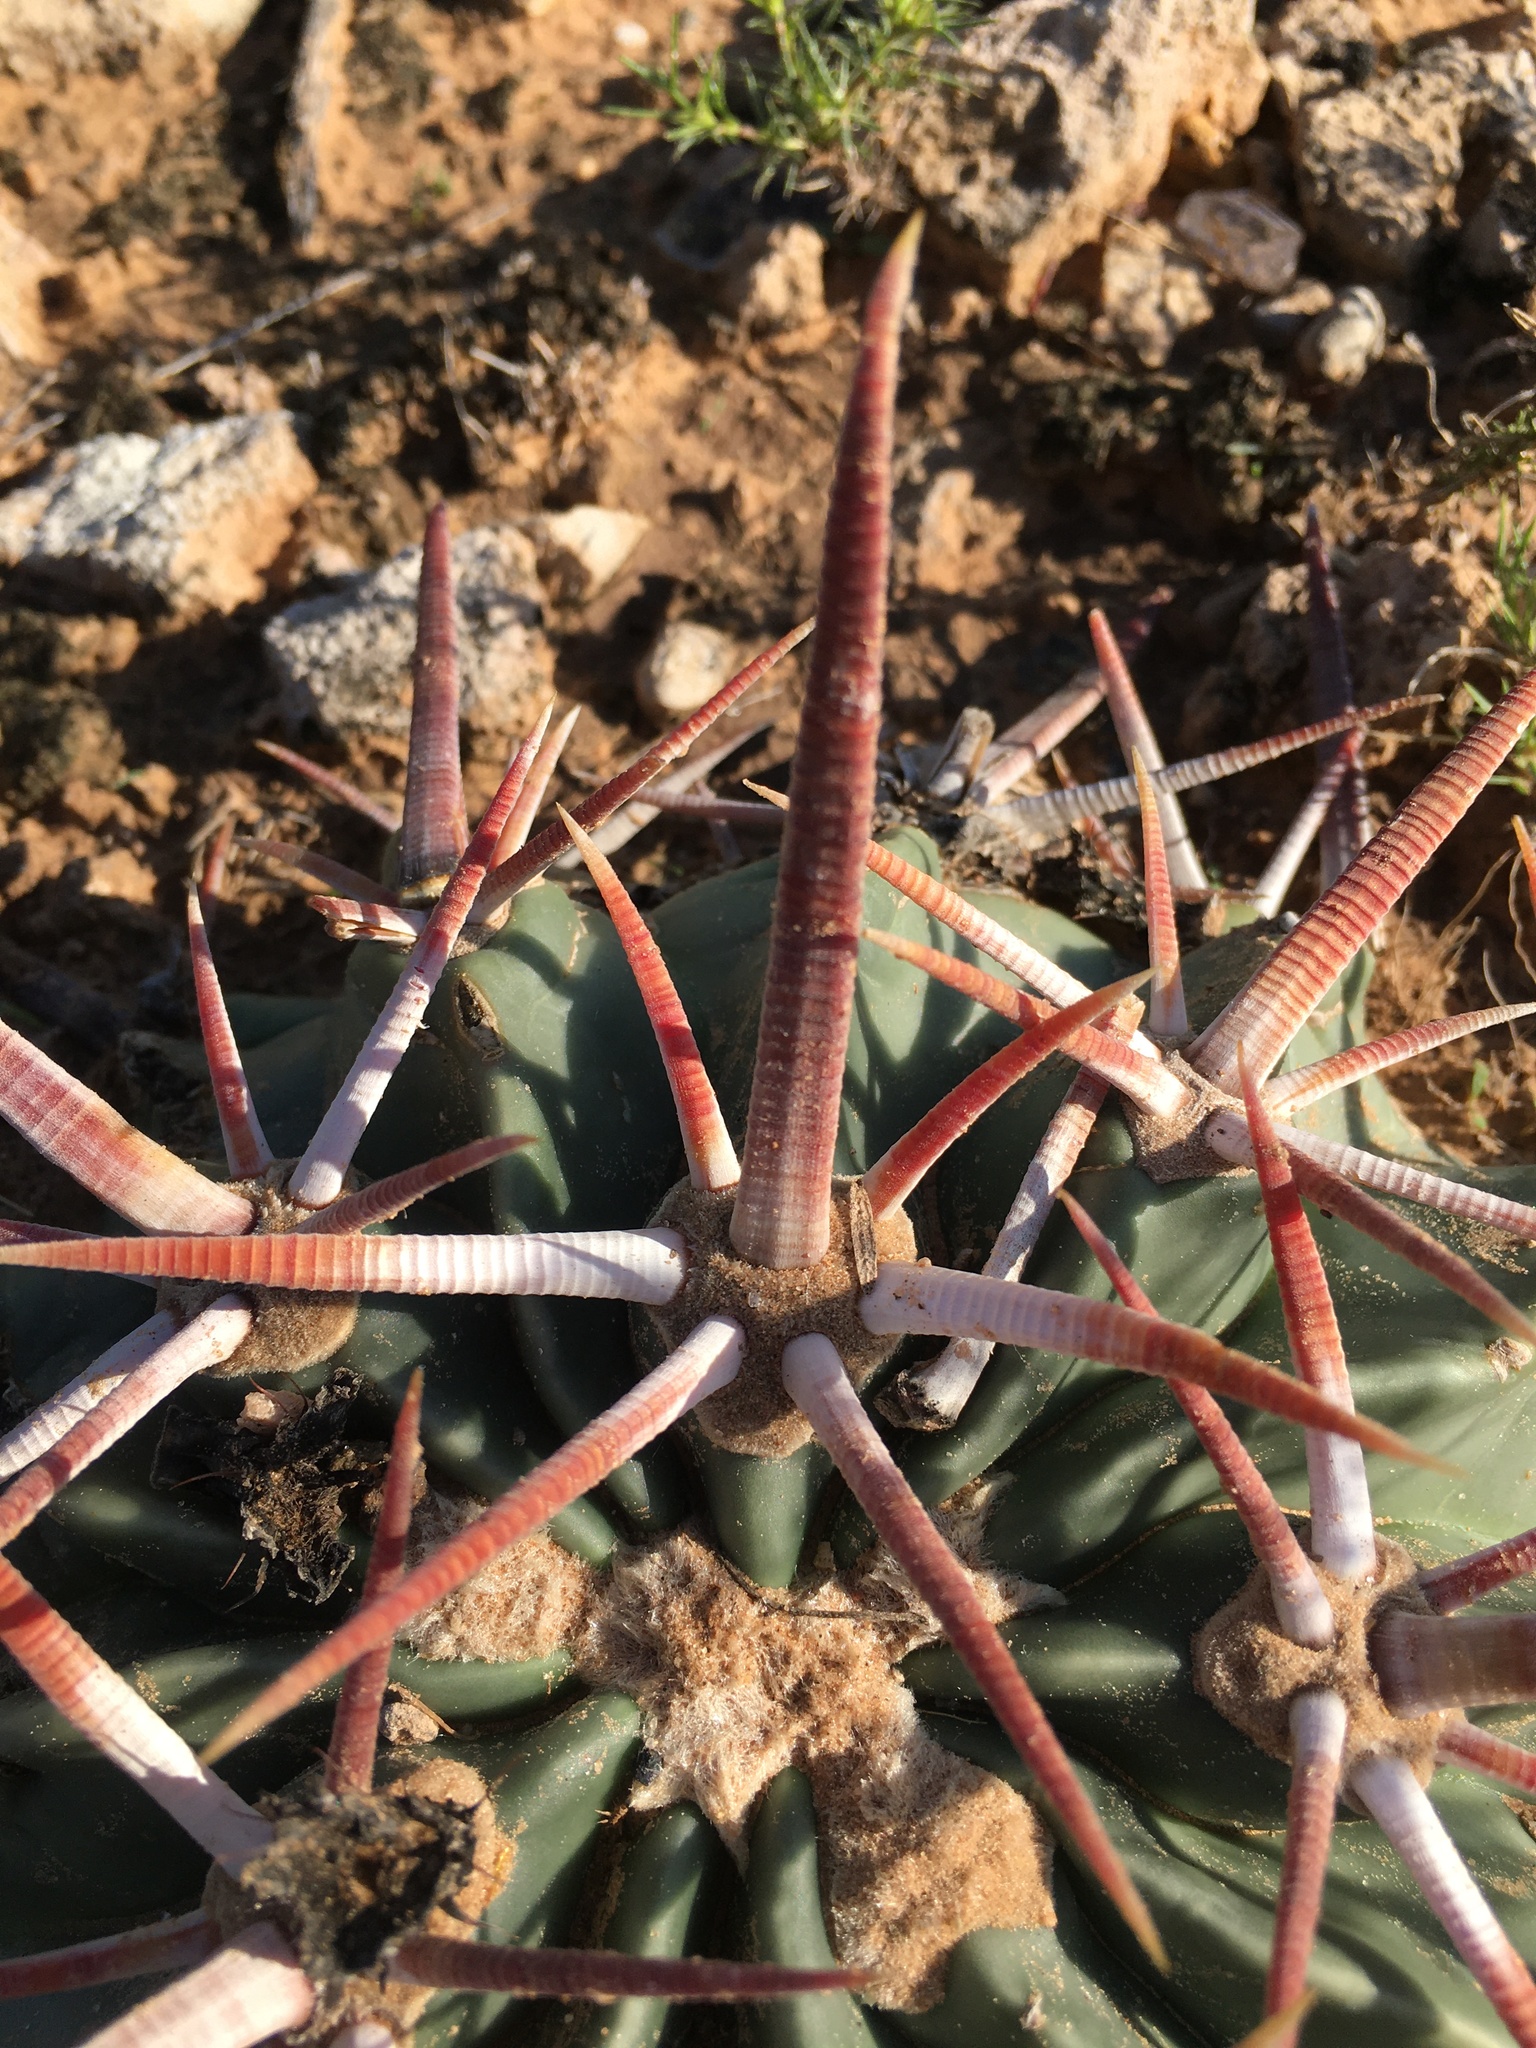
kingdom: Plantae
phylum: Tracheophyta
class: Magnoliopsida
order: Caryophyllales
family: Cactaceae
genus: Echinocactus
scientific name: Echinocactus texensis
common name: Devil's pincushion
